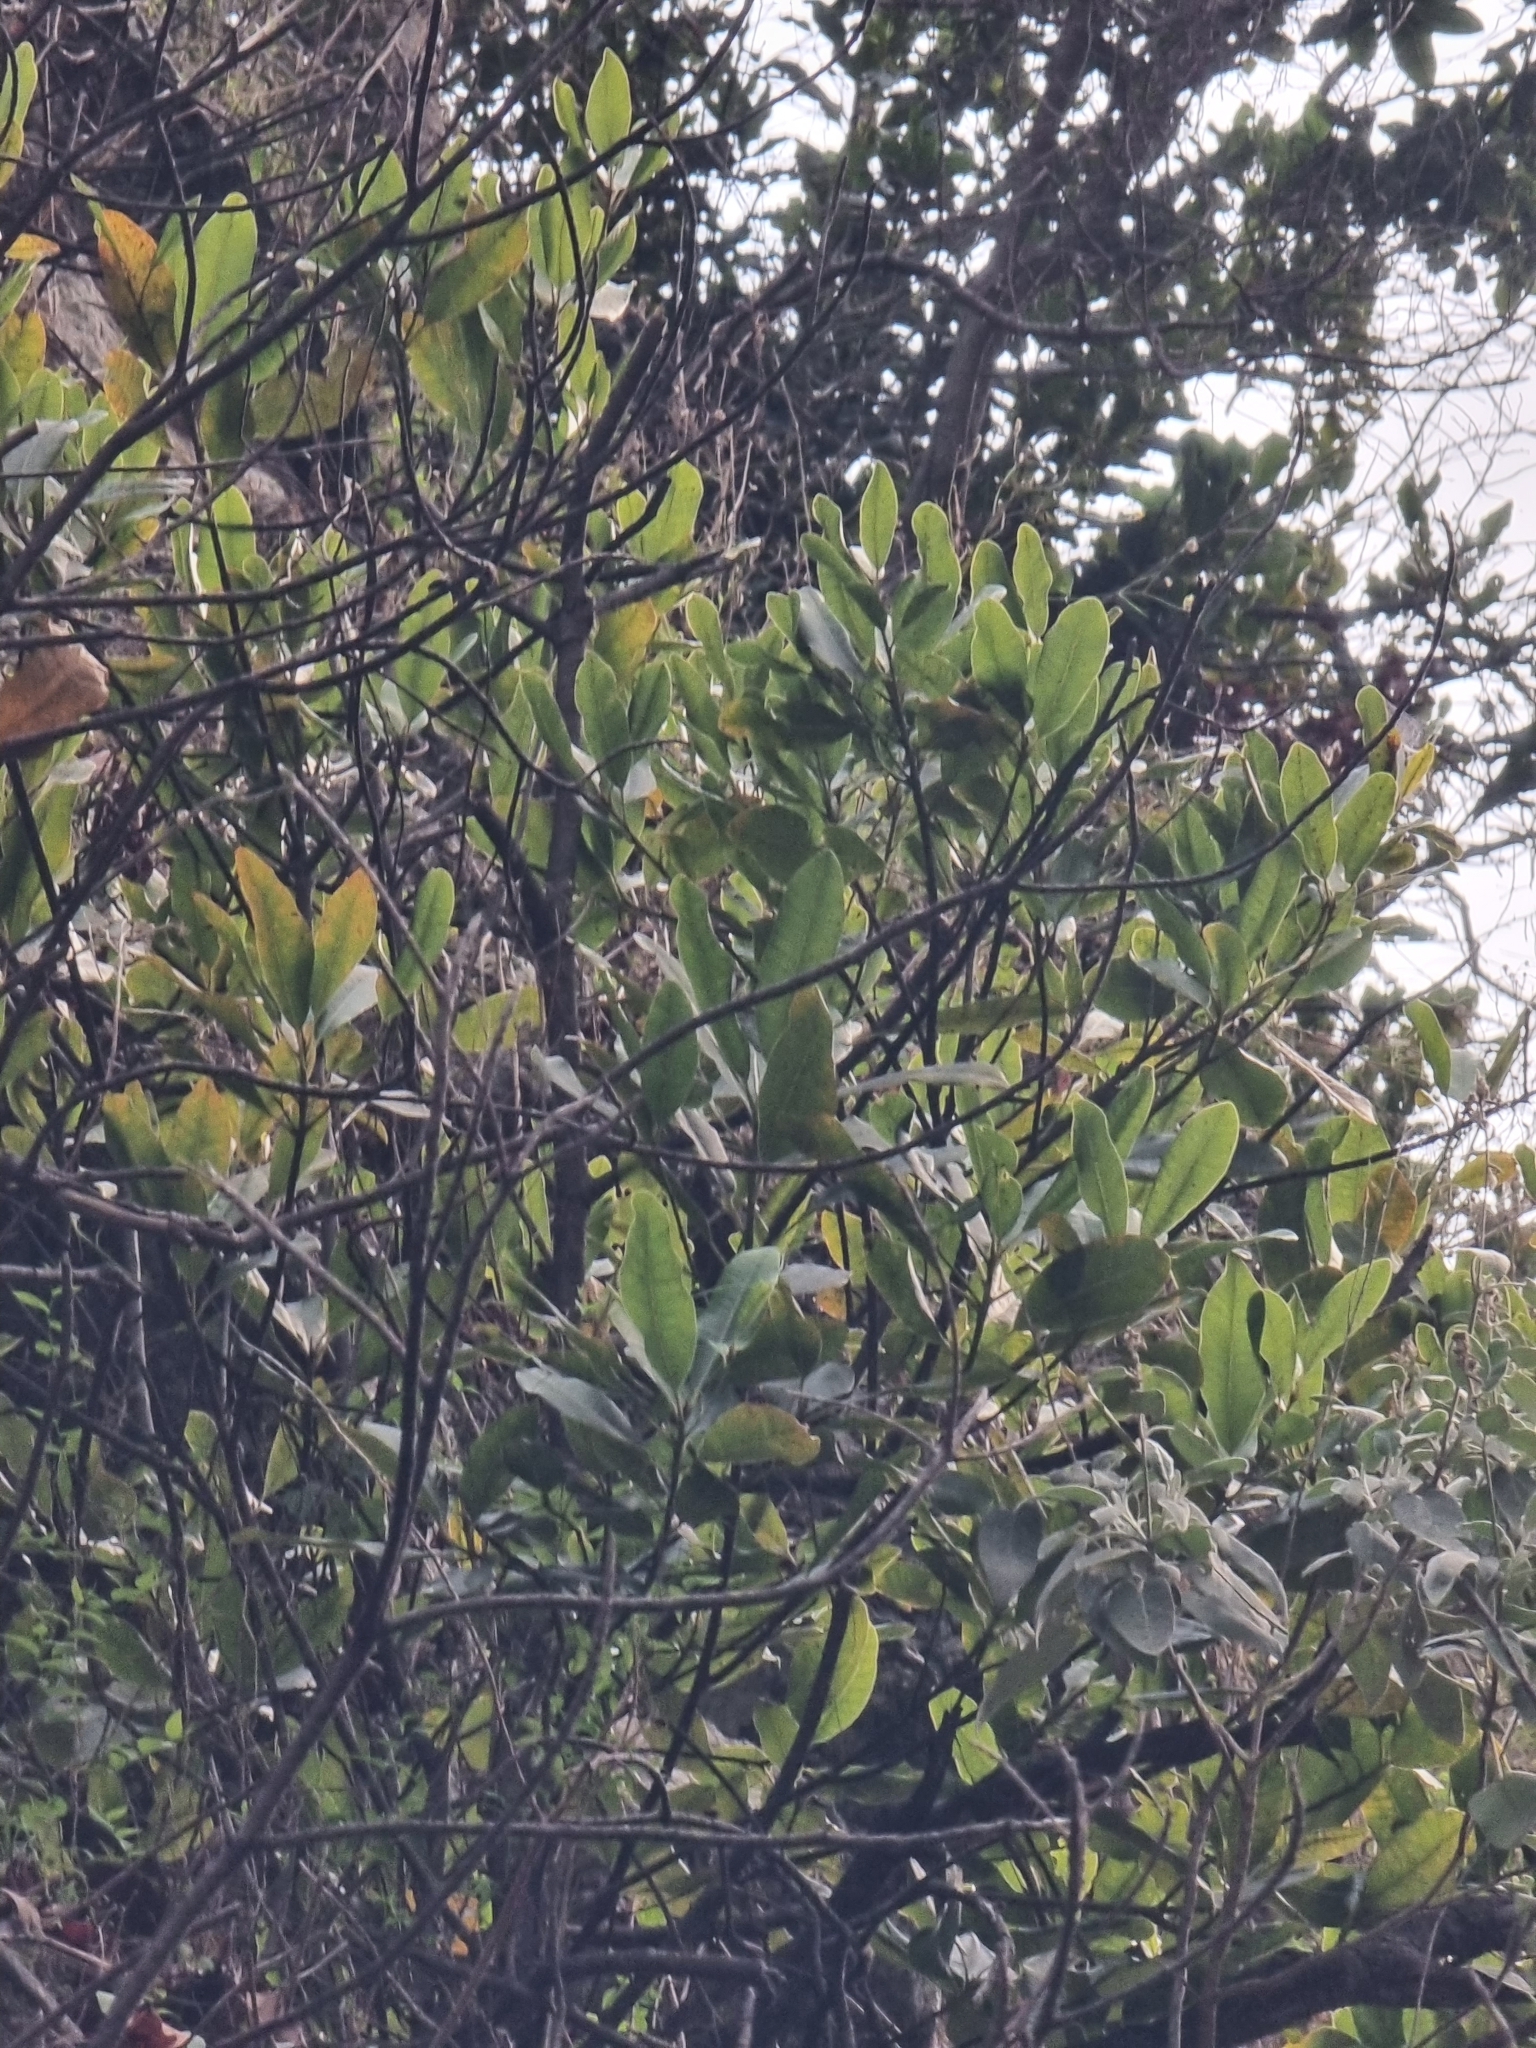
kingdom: Plantae
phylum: Tracheophyta
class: Magnoliopsida
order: Ericales
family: Sapotaceae
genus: Sideroxylon
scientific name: Sideroxylon mirmulans
